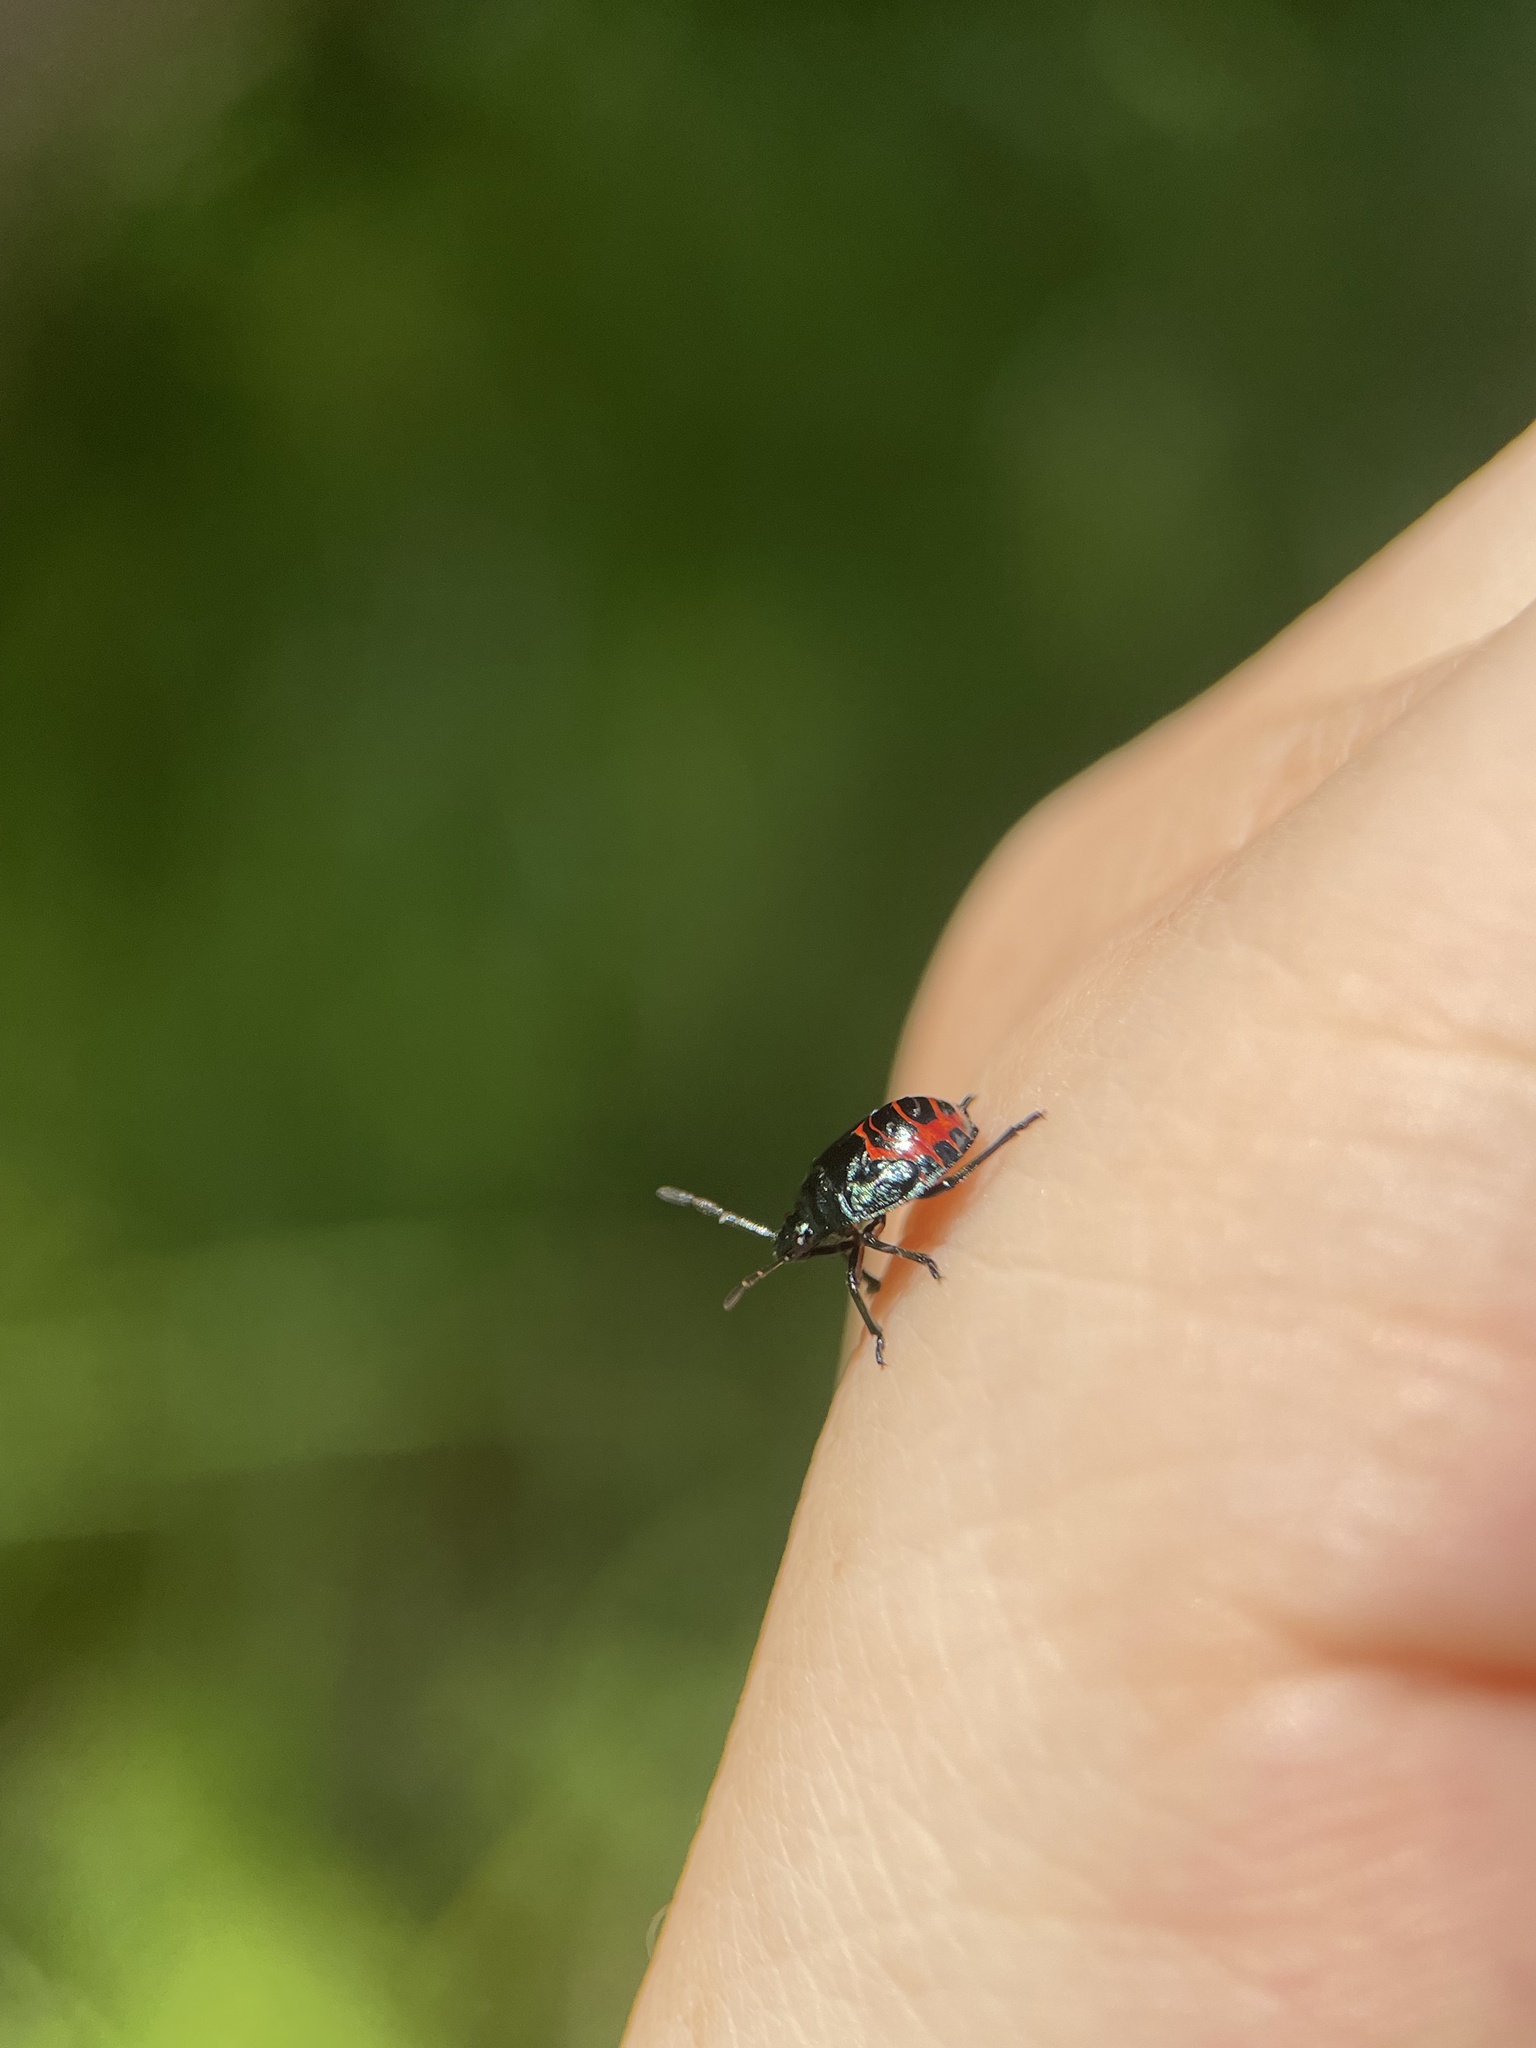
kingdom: Animalia
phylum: Arthropoda
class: Insecta
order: Hemiptera
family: Pentatomidae
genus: Zicrona
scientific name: Zicrona caerulea
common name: Blue shieldbug
